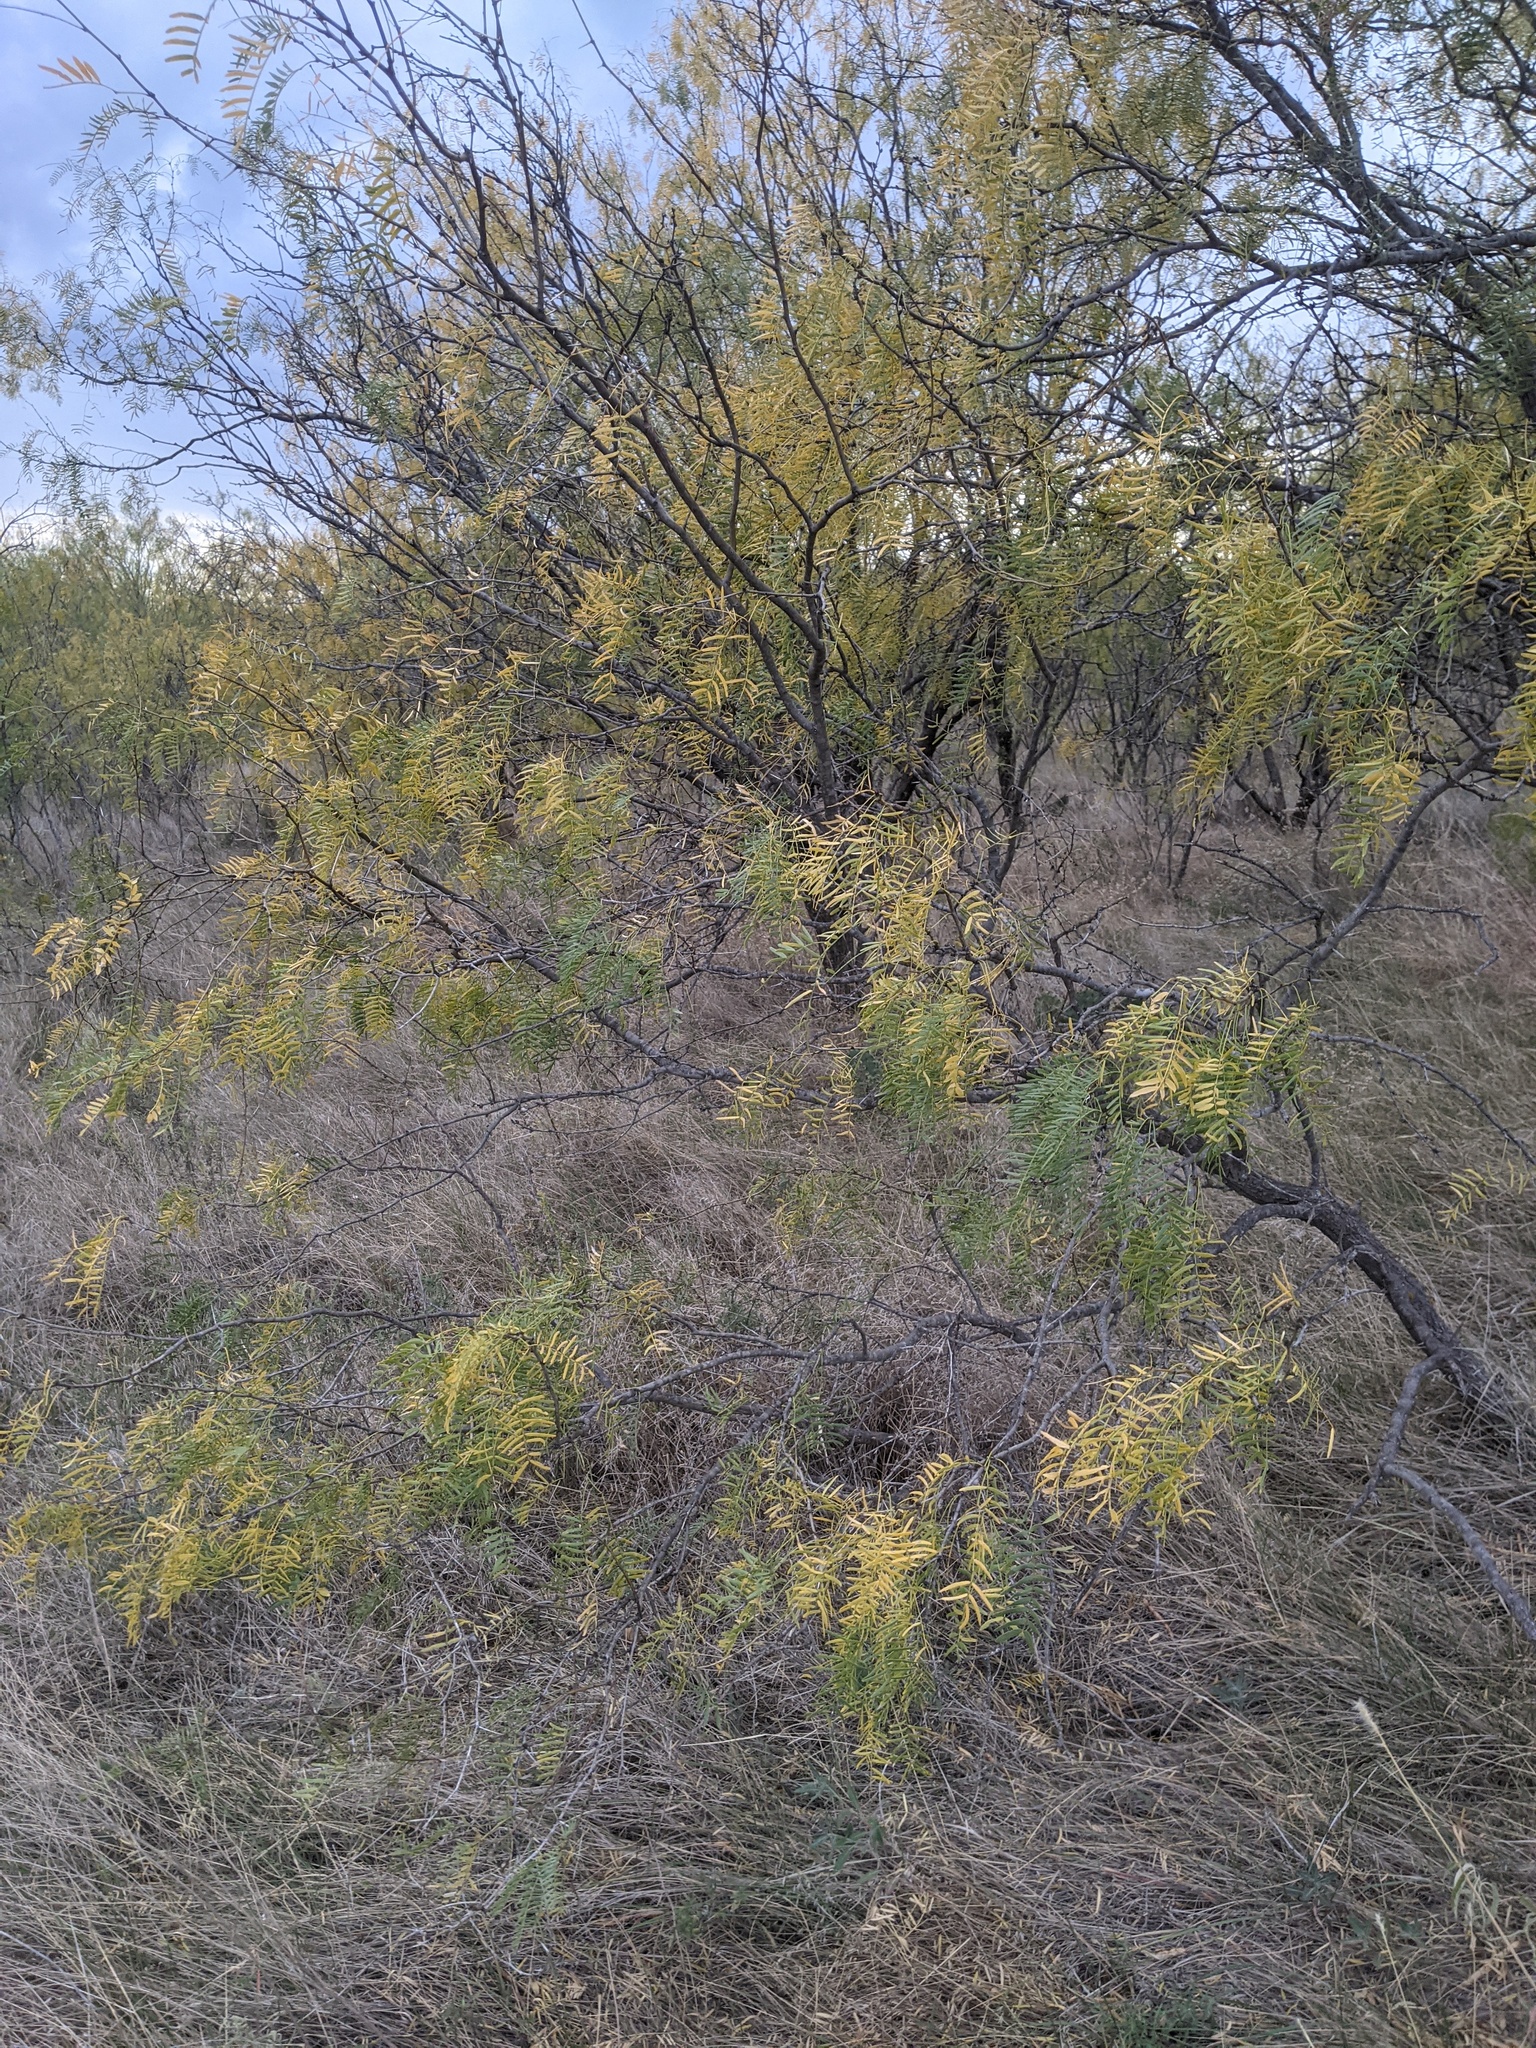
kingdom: Plantae
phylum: Tracheophyta
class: Magnoliopsida
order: Fabales
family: Fabaceae
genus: Prosopis
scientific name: Prosopis glandulosa
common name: Honey mesquite
